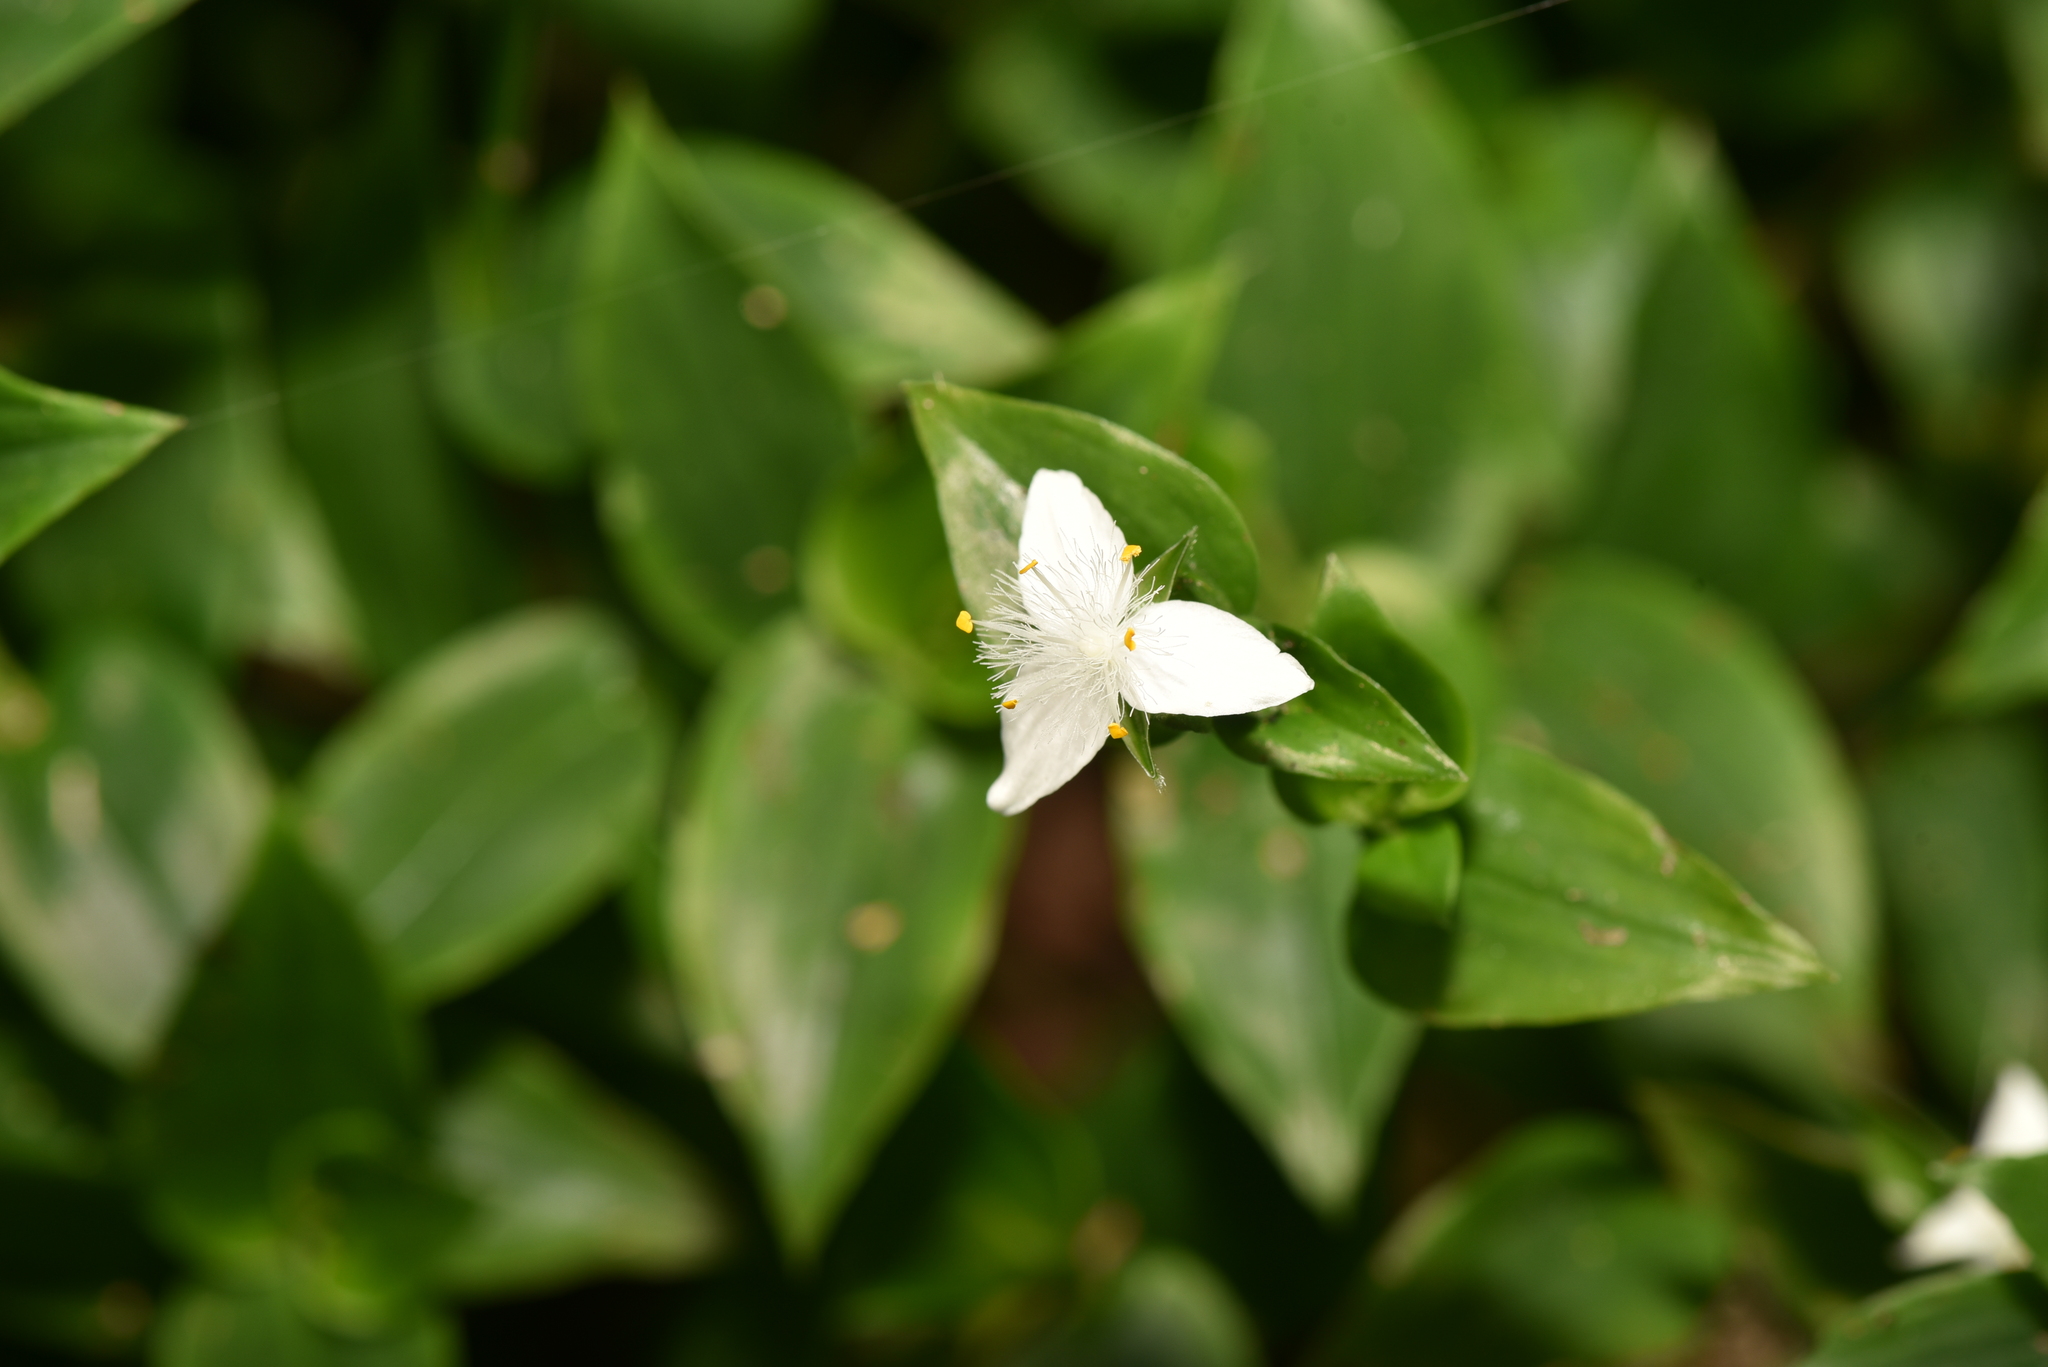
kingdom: Plantae
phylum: Tracheophyta
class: Liliopsida
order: Commelinales
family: Commelinaceae
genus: Tradescantia
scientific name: Tradescantia fluminensis
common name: Wandering-jew
